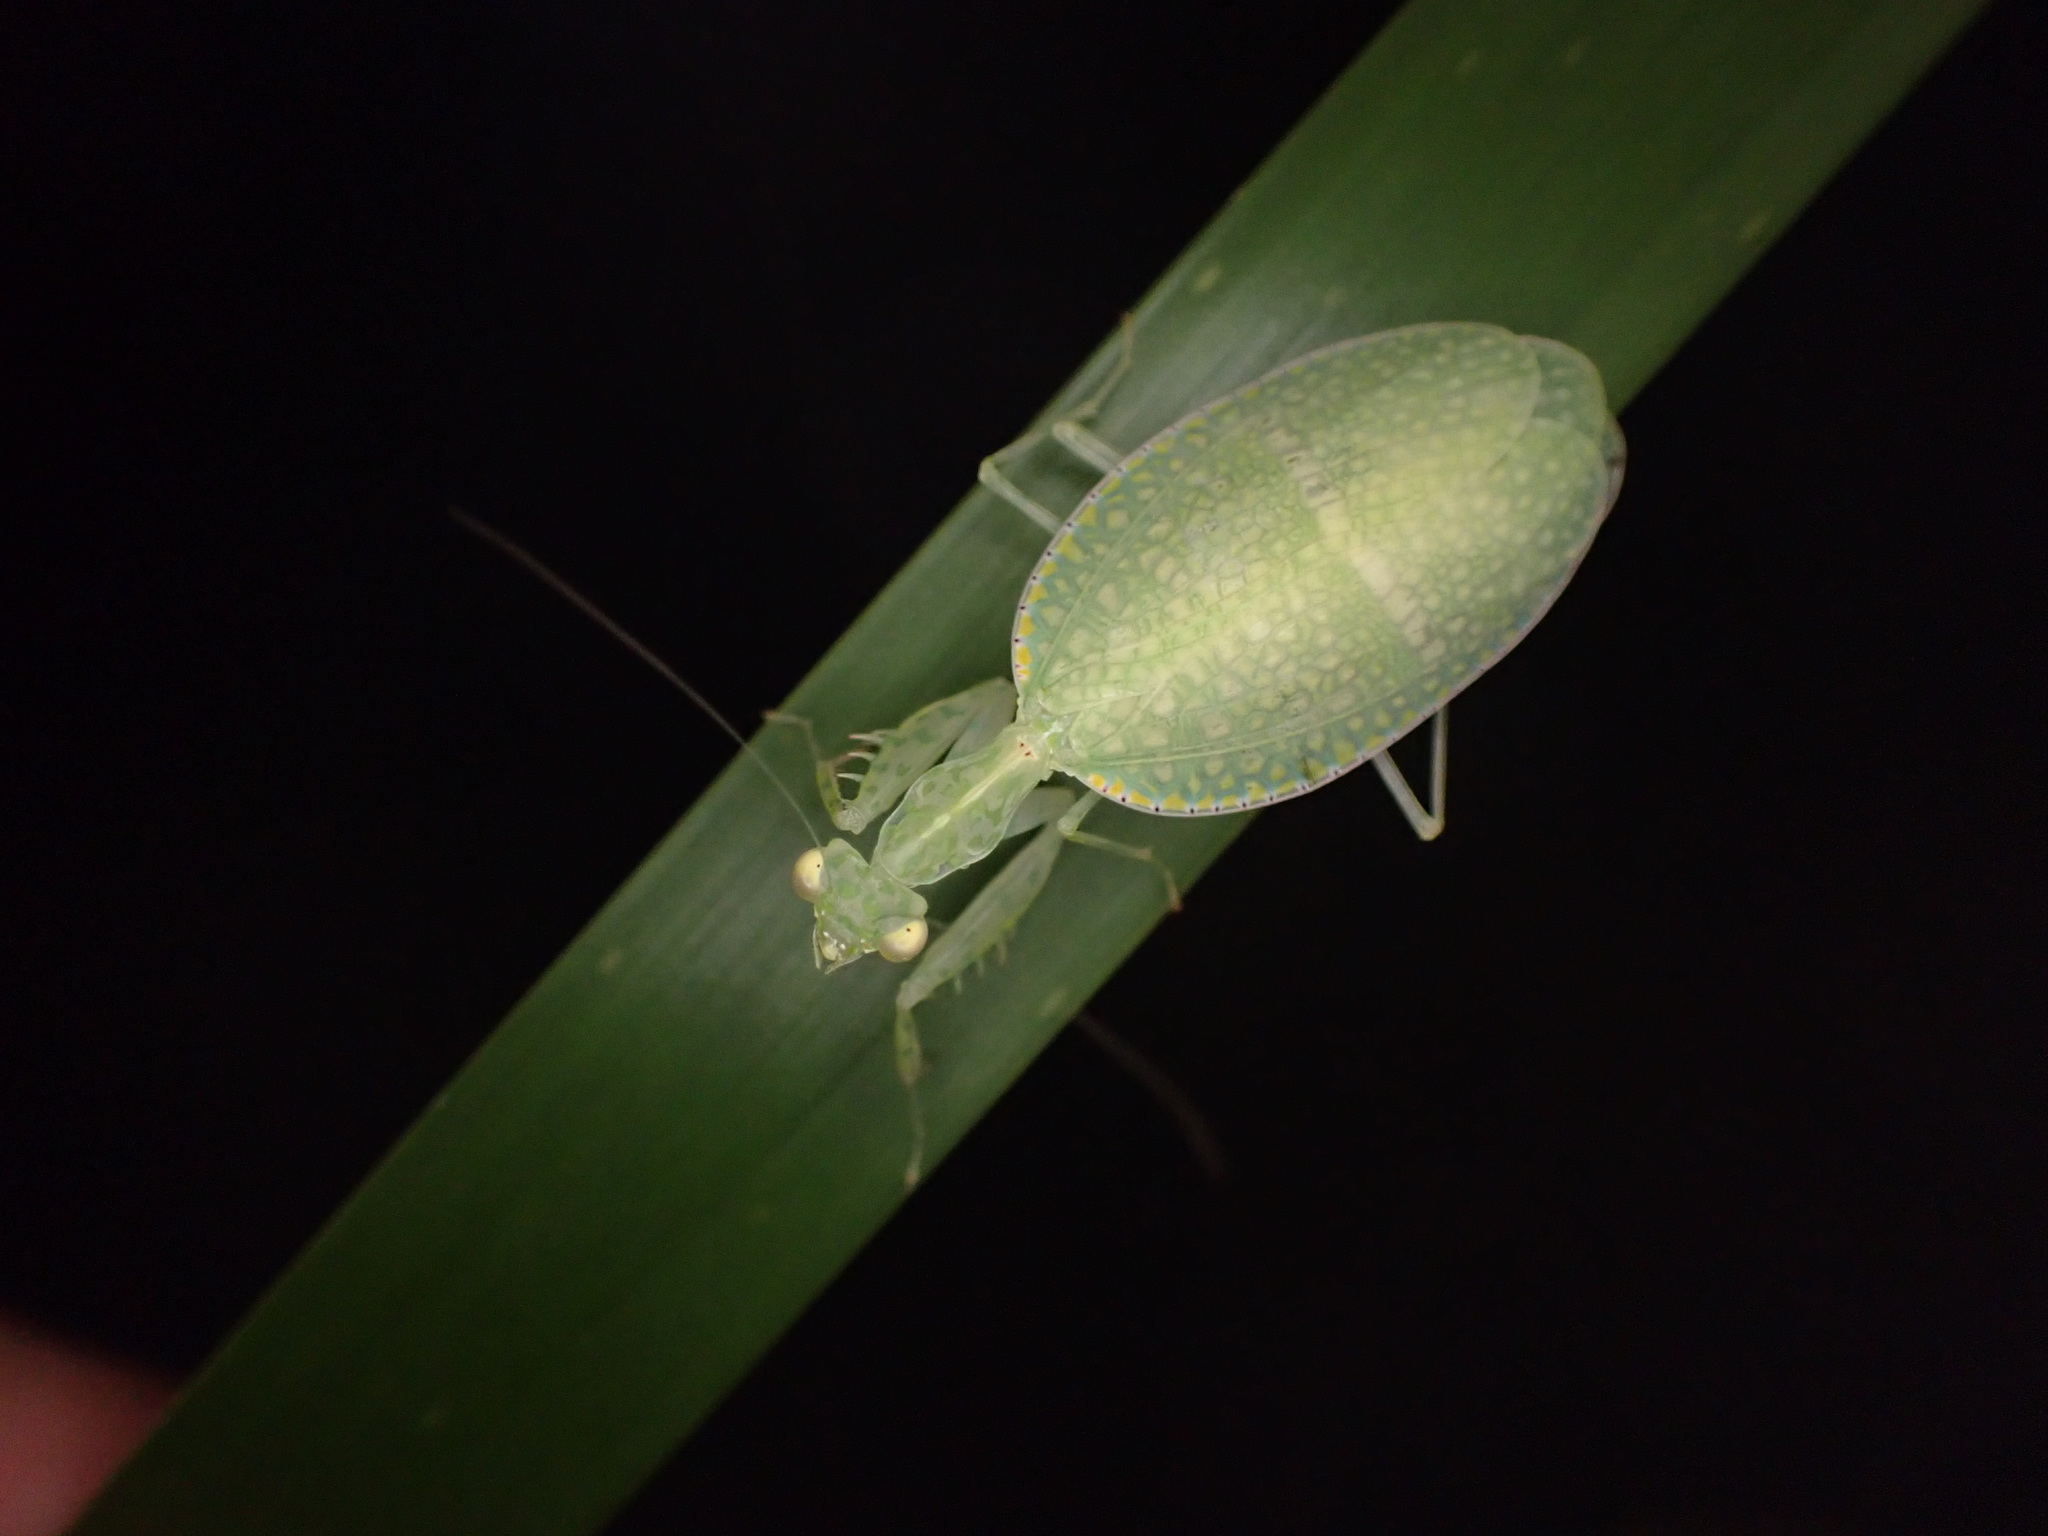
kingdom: Animalia
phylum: Arthropoda
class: Insecta
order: Mantodea
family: Nanomantidae
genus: Neomantis
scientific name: Neomantis australis
